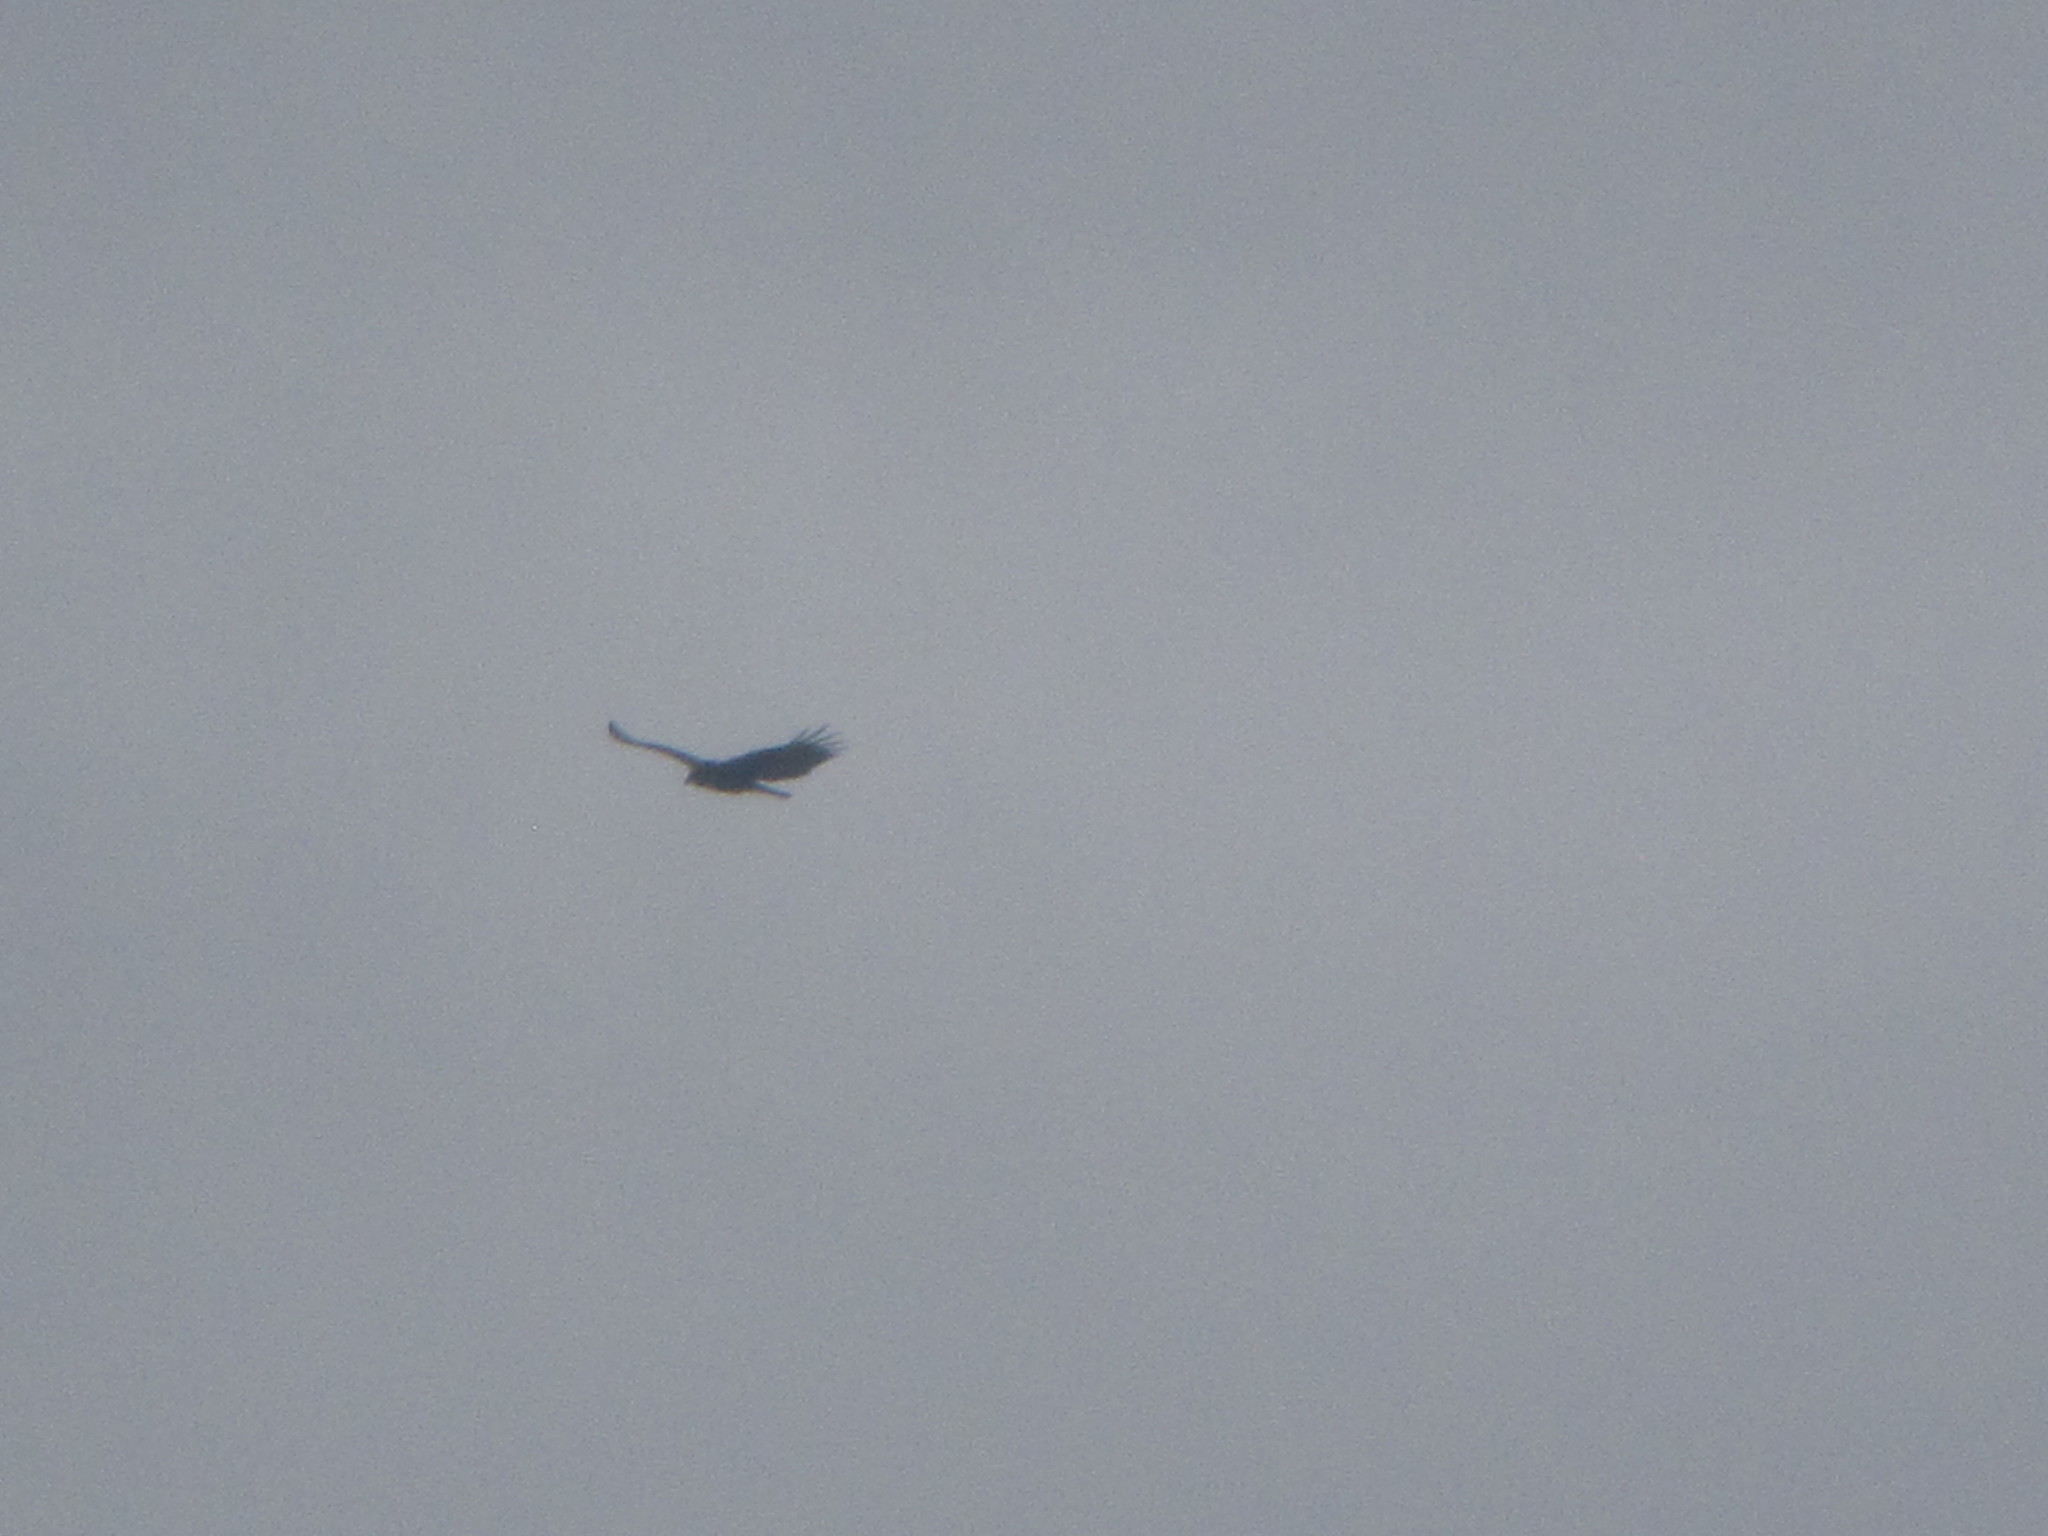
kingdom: Animalia
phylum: Chordata
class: Aves
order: Accipitriformes
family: Cathartidae
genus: Cathartes
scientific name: Cathartes aura
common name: Turkey vulture
